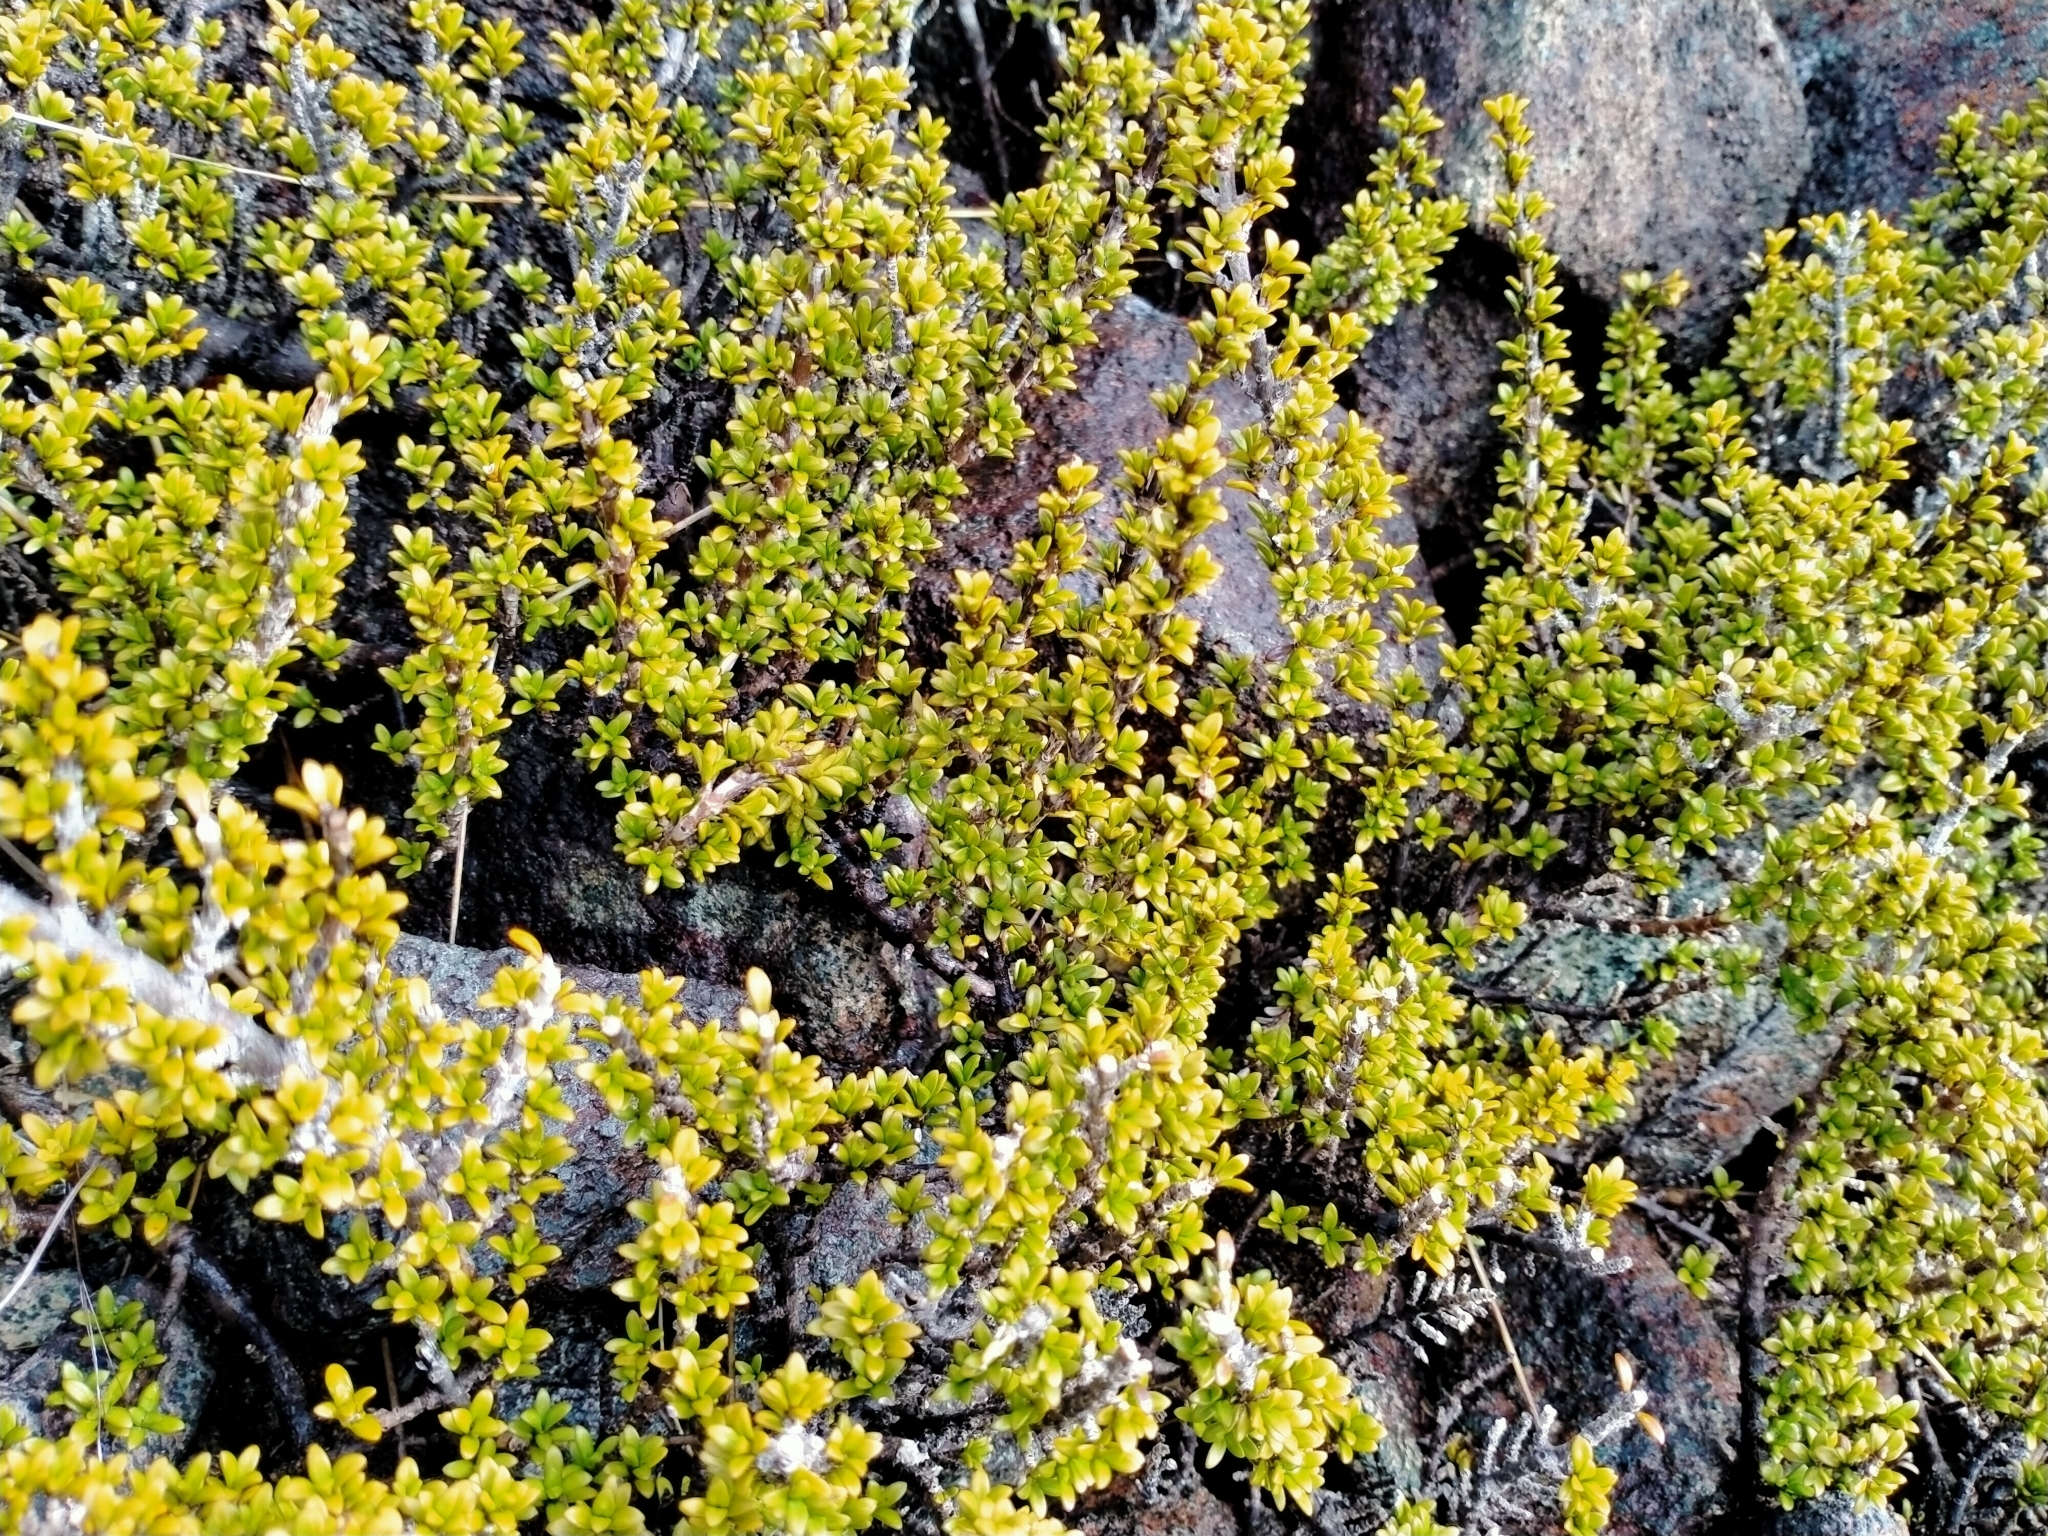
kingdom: Plantae
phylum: Tracheophyta
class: Magnoliopsida
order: Gentianales
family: Rubiaceae
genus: Coprosma
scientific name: Coprosma fowerakeri
